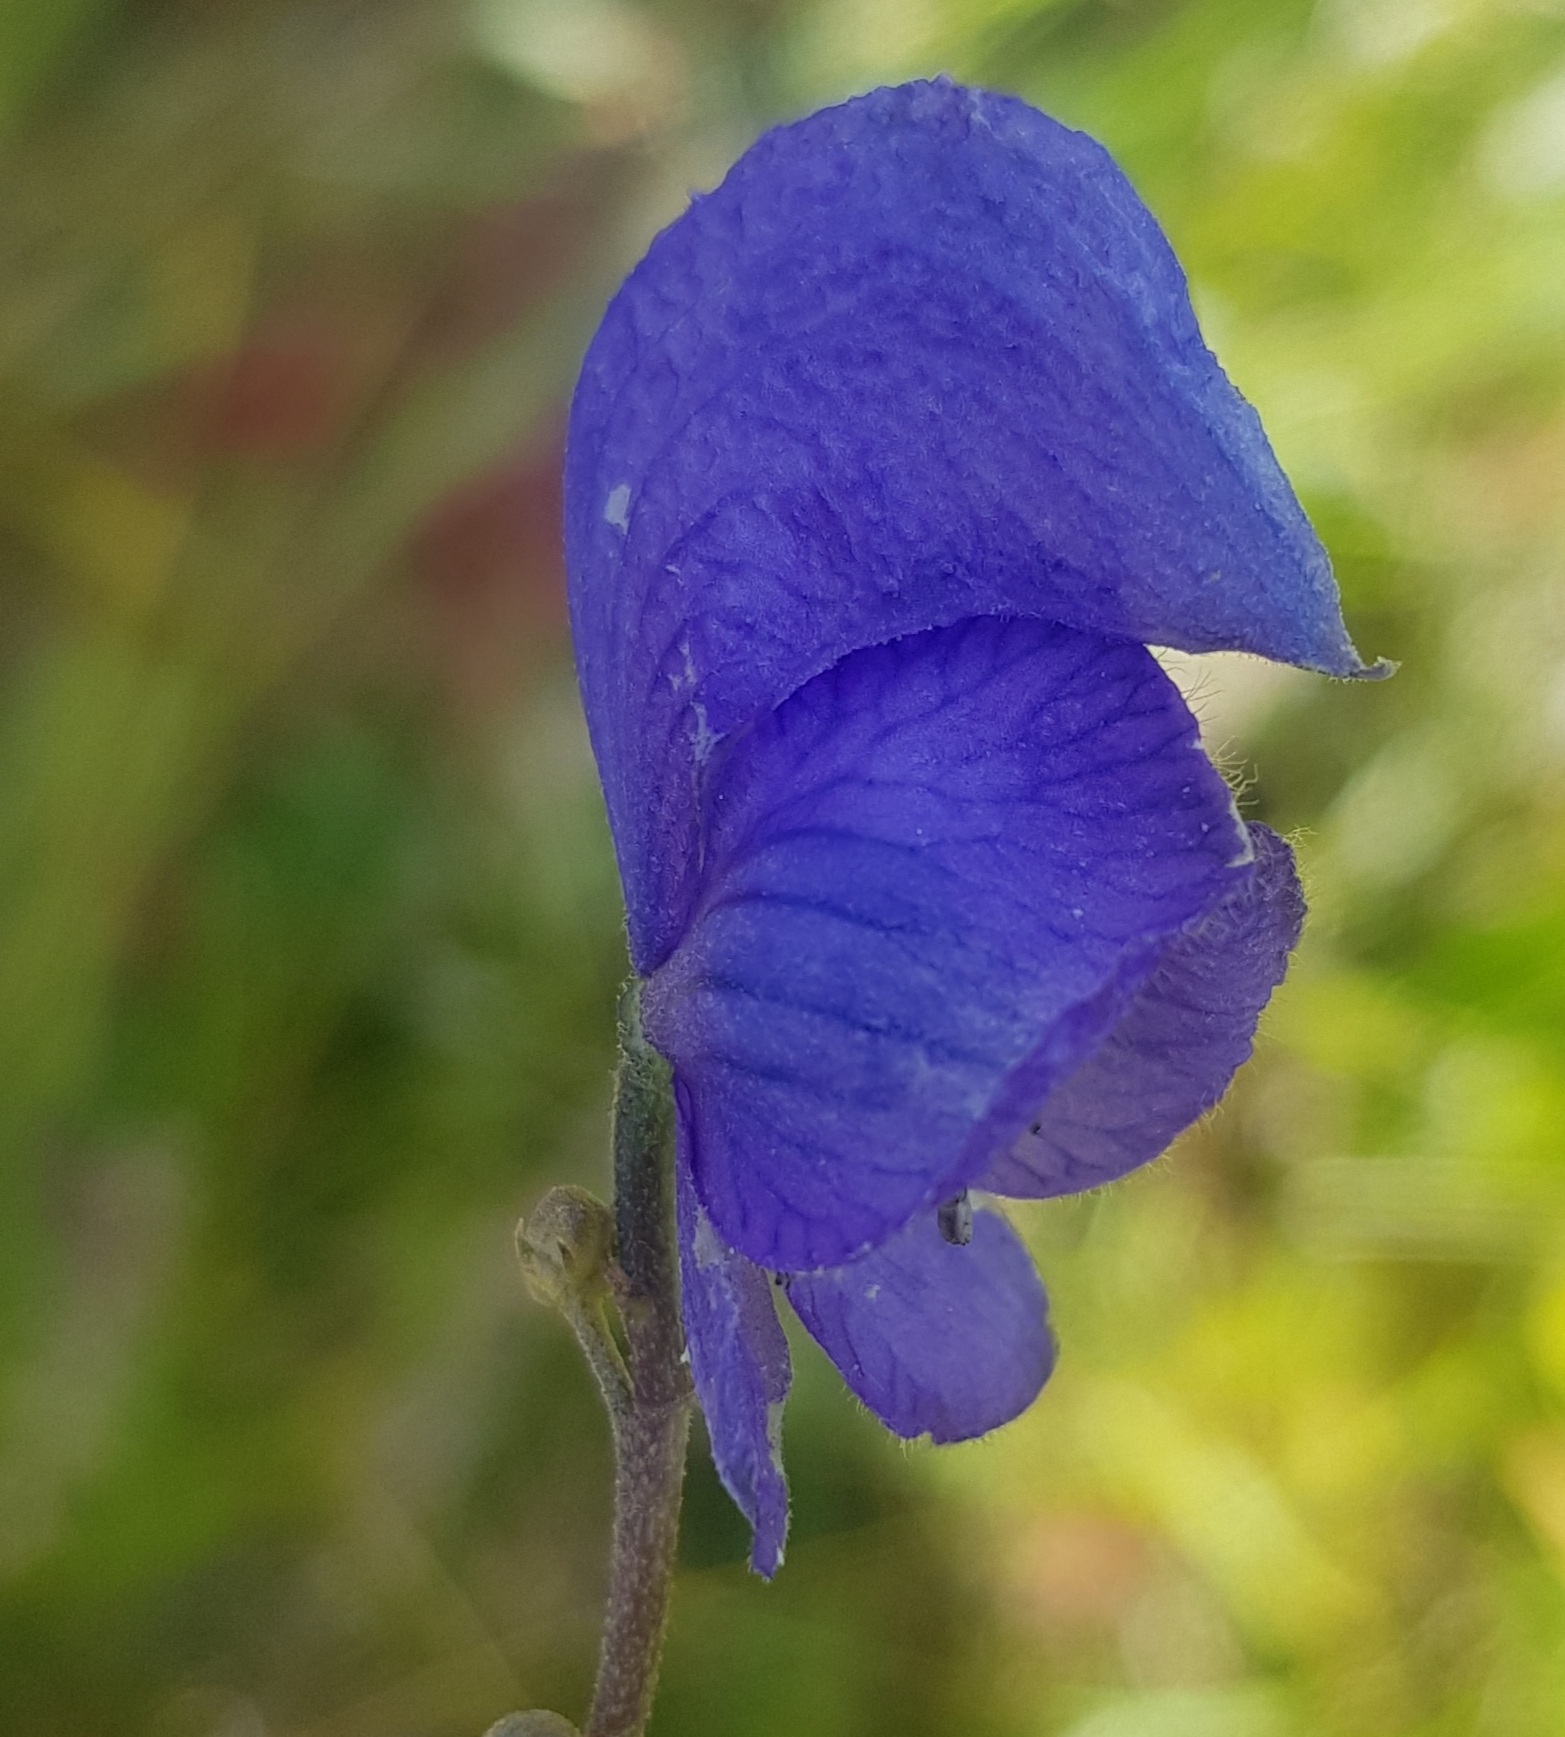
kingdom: Plantae
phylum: Tracheophyta
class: Magnoliopsida
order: Ranunculales
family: Ranunculaceae
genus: Aconitum
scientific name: Aconitum baicalense
